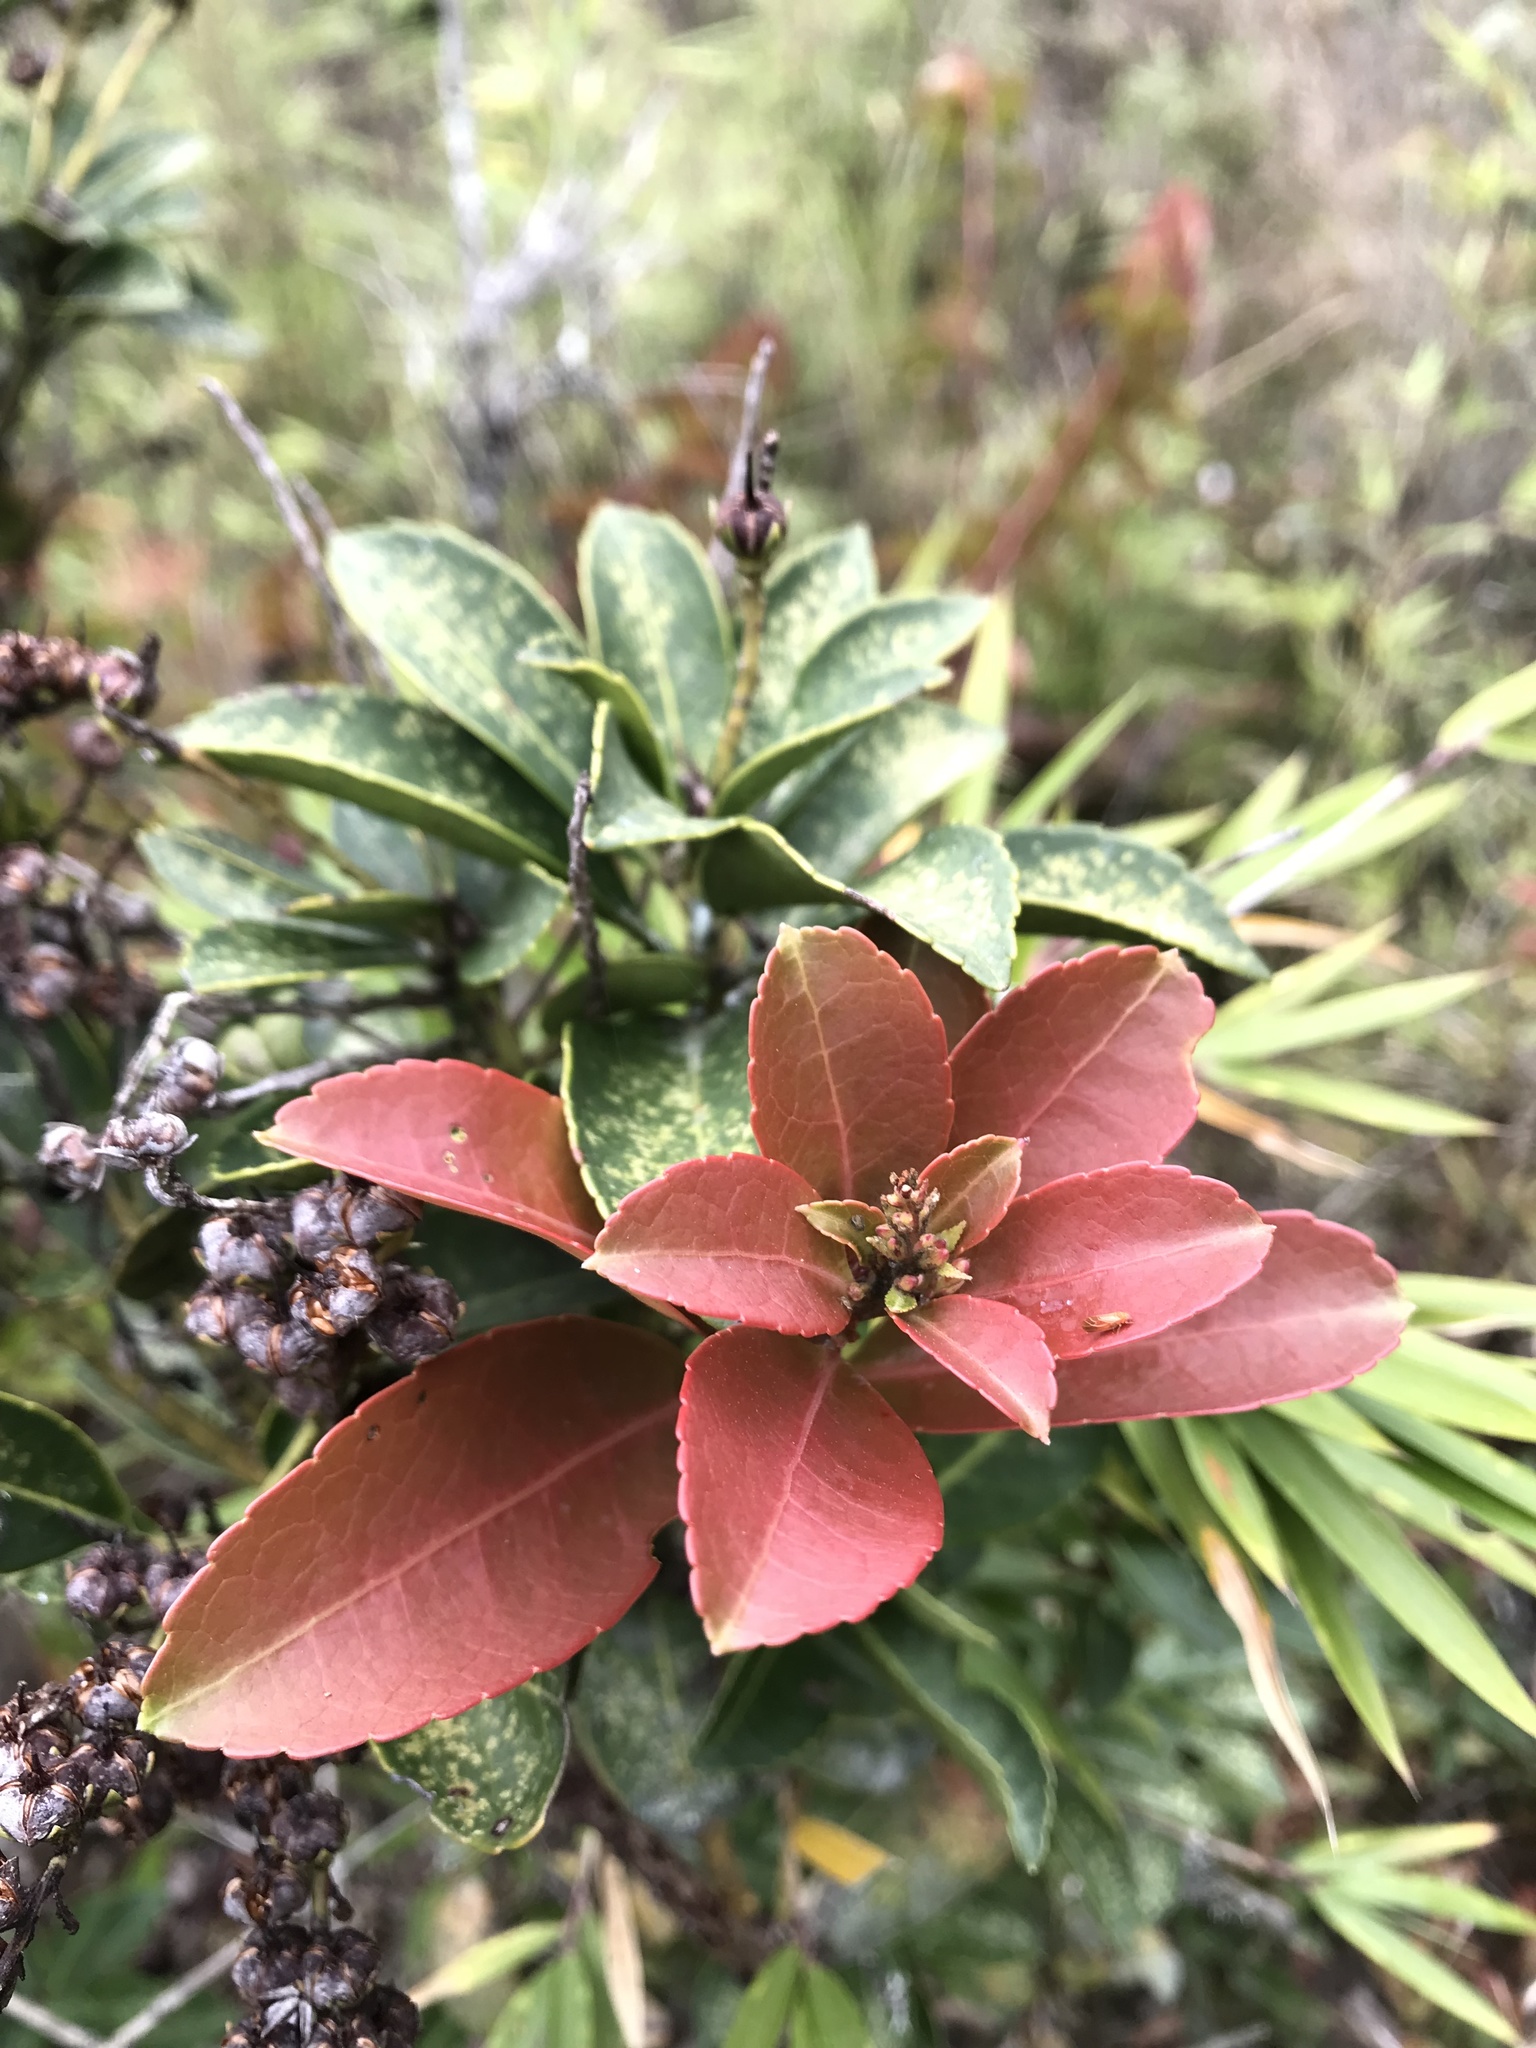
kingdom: Plantae
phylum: Tracheophyta
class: Magnoliopsida
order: Ericales
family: Ericaceae
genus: Pieris
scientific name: Pieris japonica
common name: Japanese pieris
